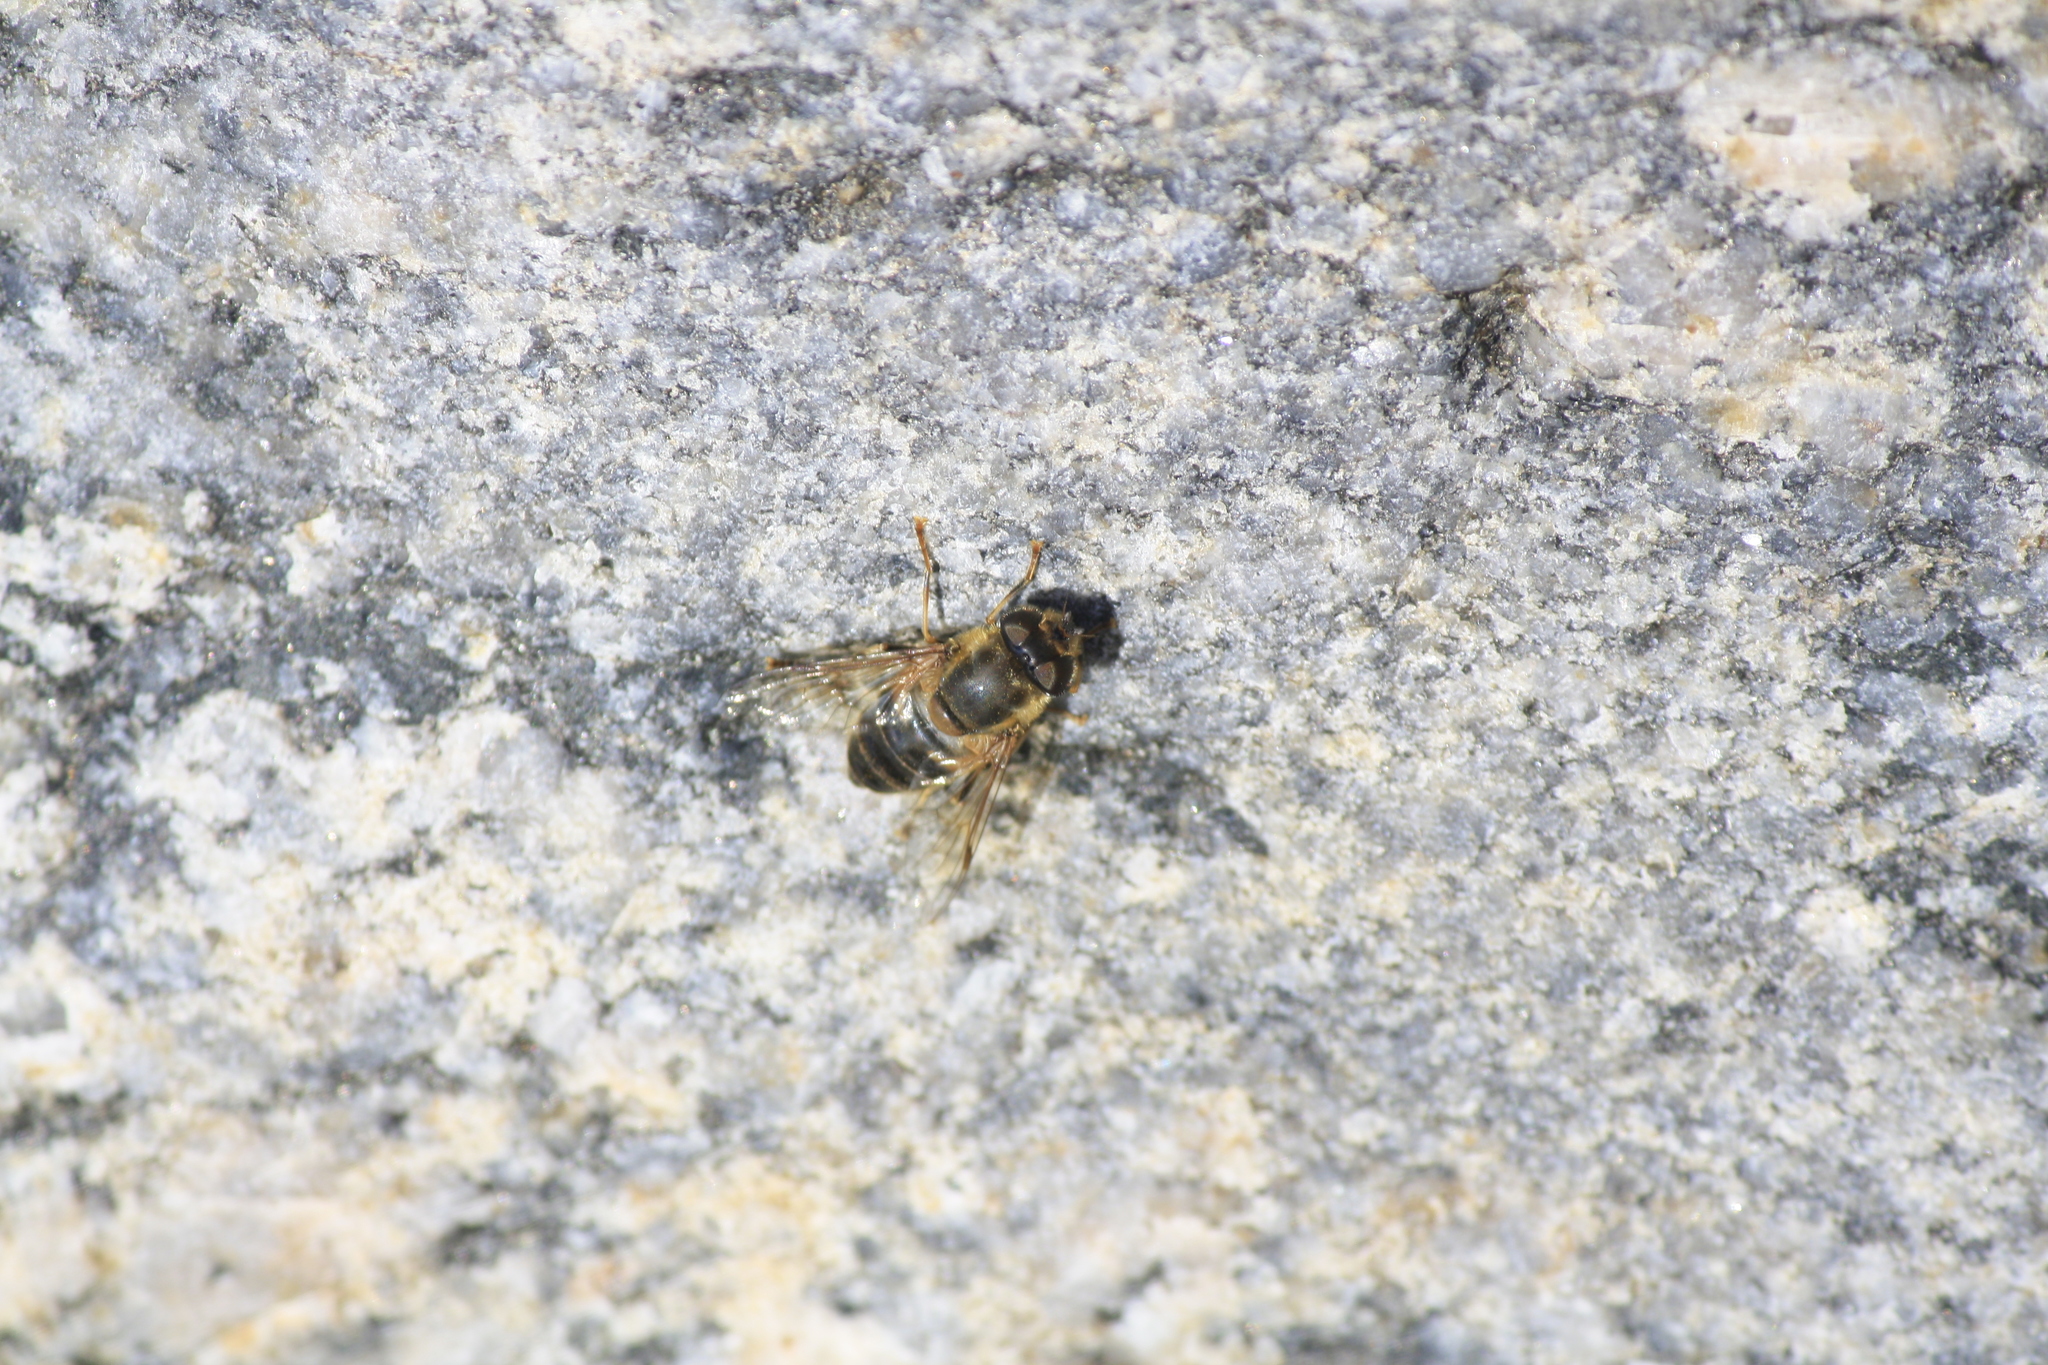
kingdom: Animalia
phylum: Arthropoda
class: Insecta
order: Diptera
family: Syrphidae
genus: Eristalis
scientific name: Eristalis pertinax
